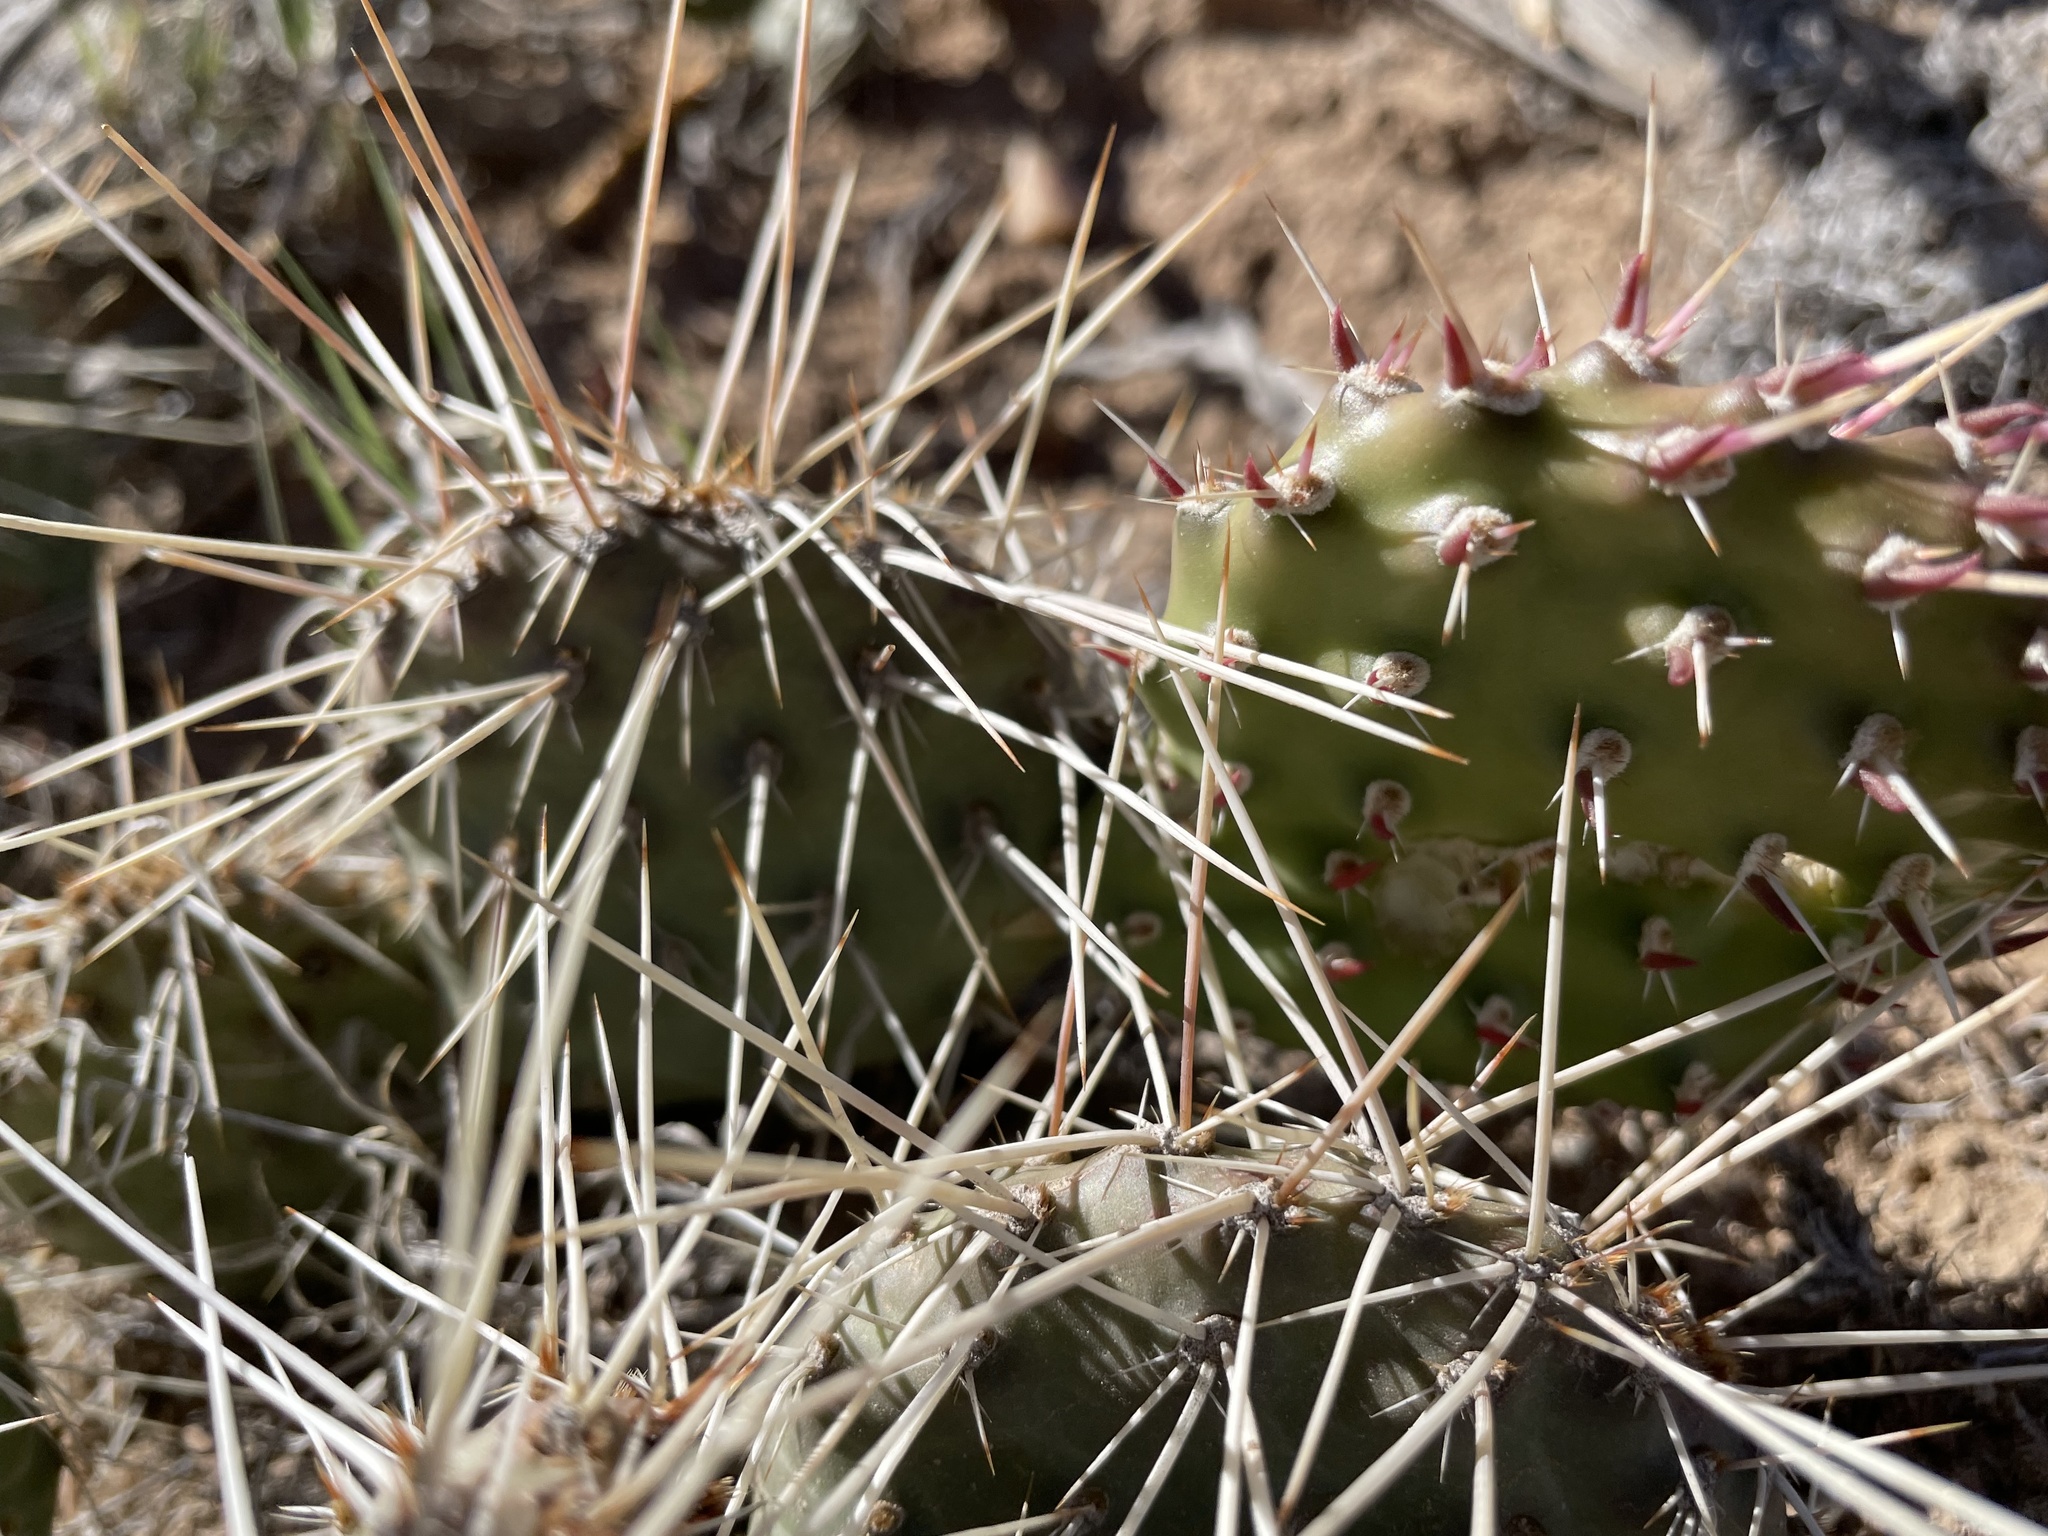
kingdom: Plantae
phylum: Tracheophyta
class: Magnoliopsida
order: Caryophyllales
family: Cactaceae
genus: Opuntia
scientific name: Opuntia polyacantha
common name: Plains prickly-pear
